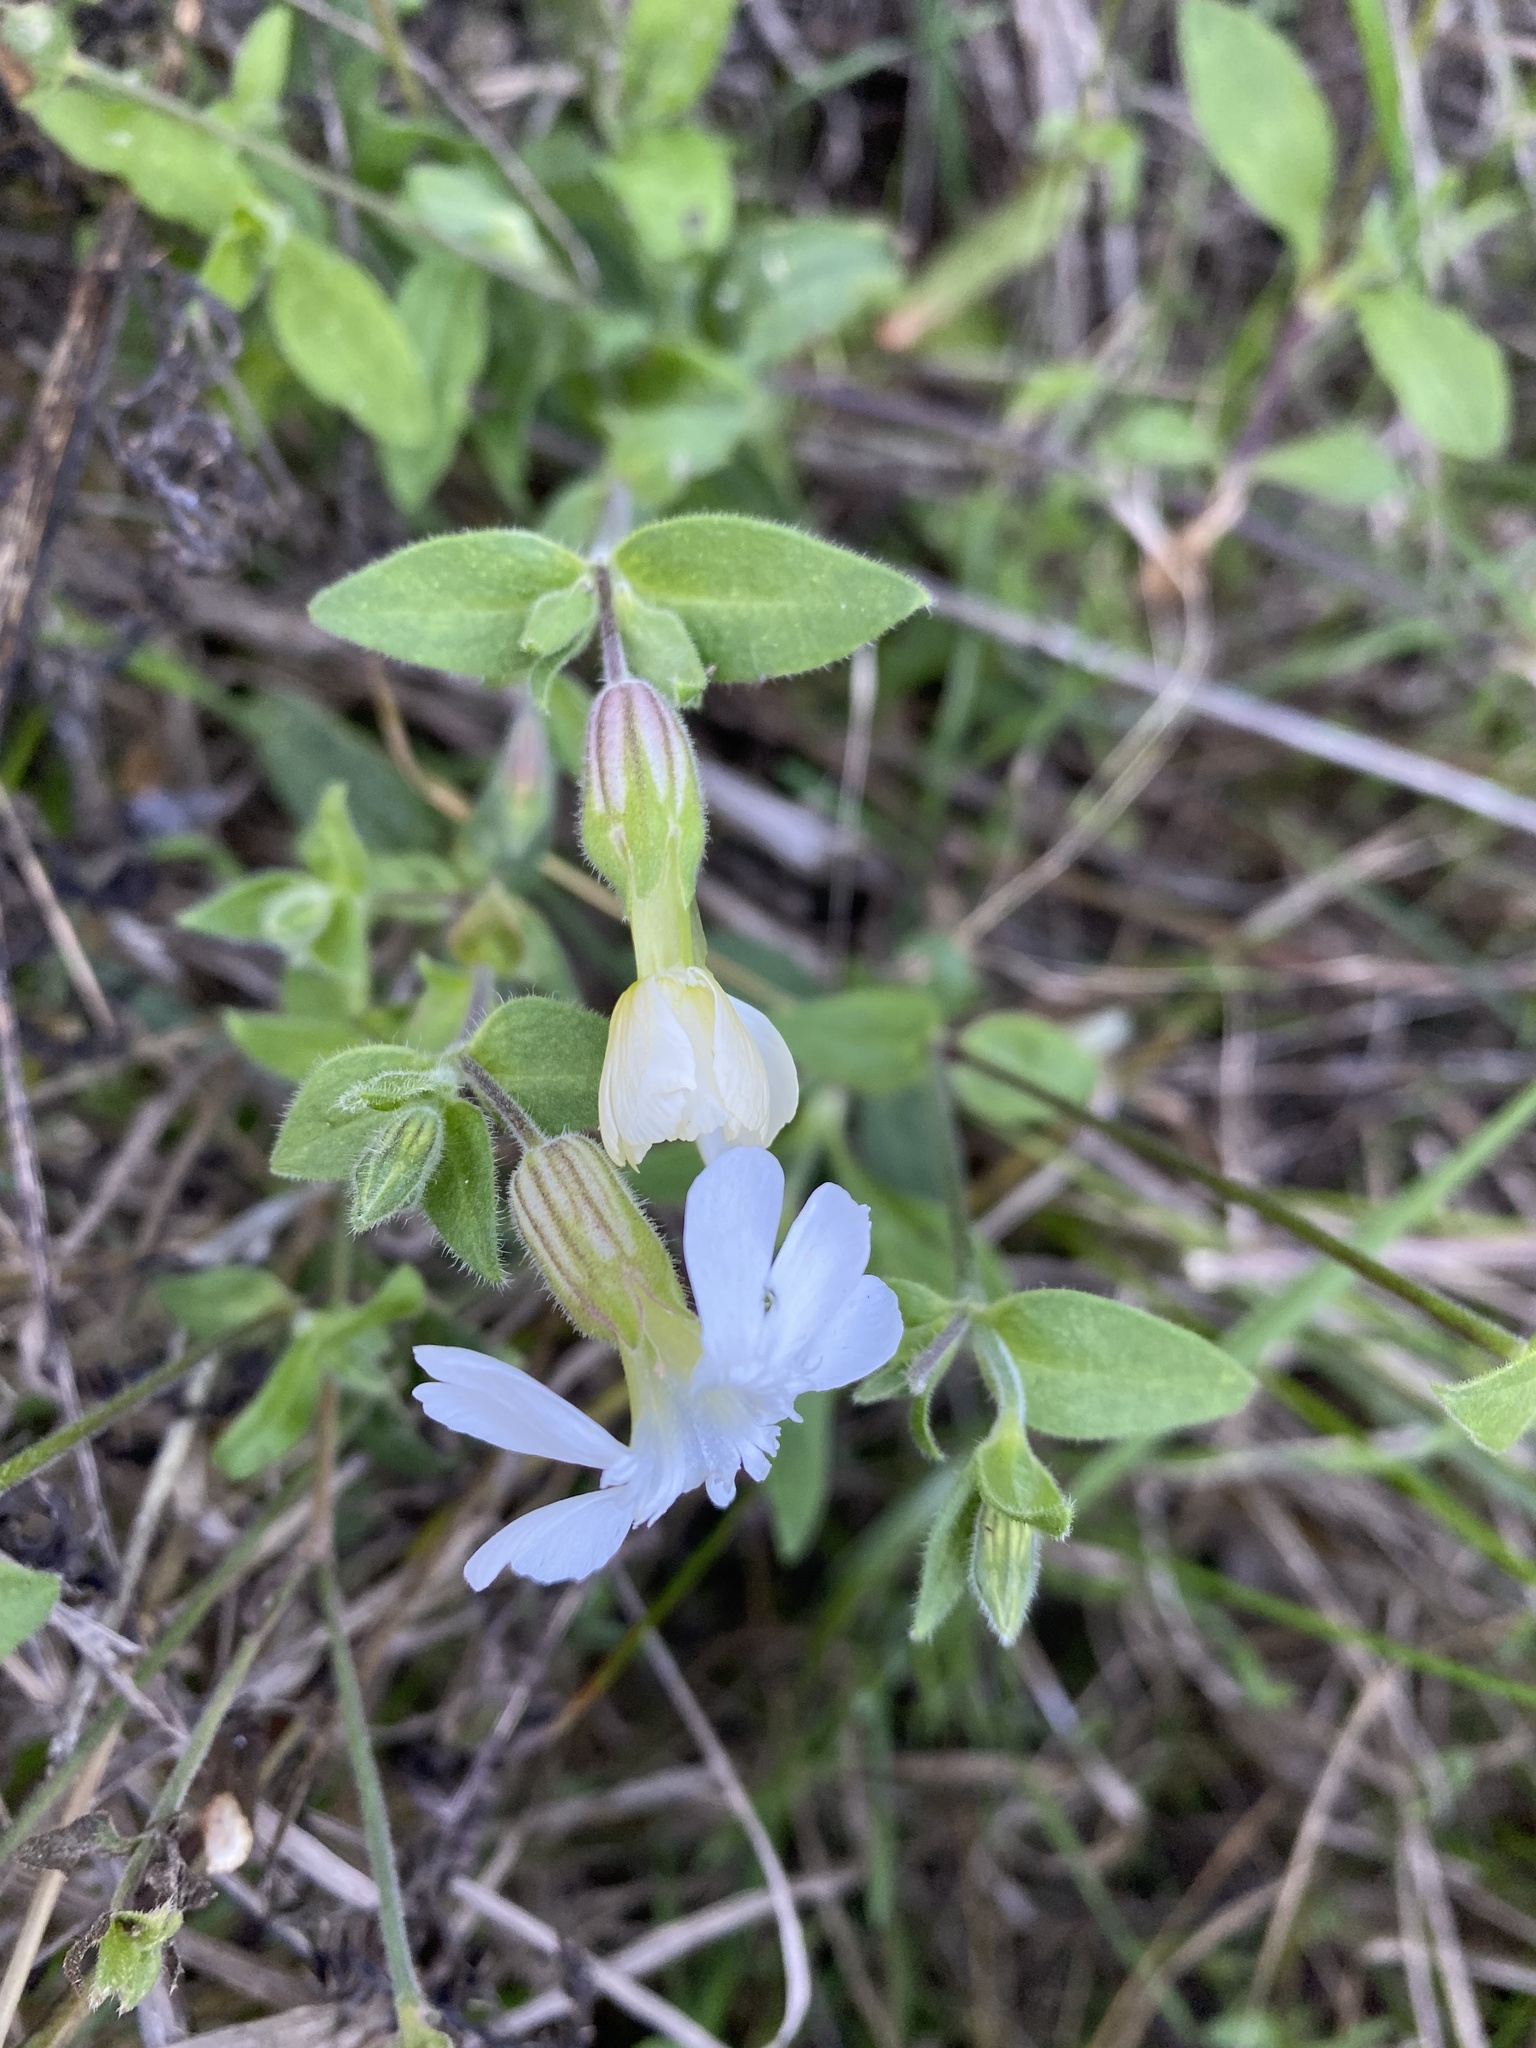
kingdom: Plantae
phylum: Tracheophyta
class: Magnoliopsida
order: Caryophyllales
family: Caryophyllaceae
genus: Silene
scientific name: Silene latifolia
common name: White campion
